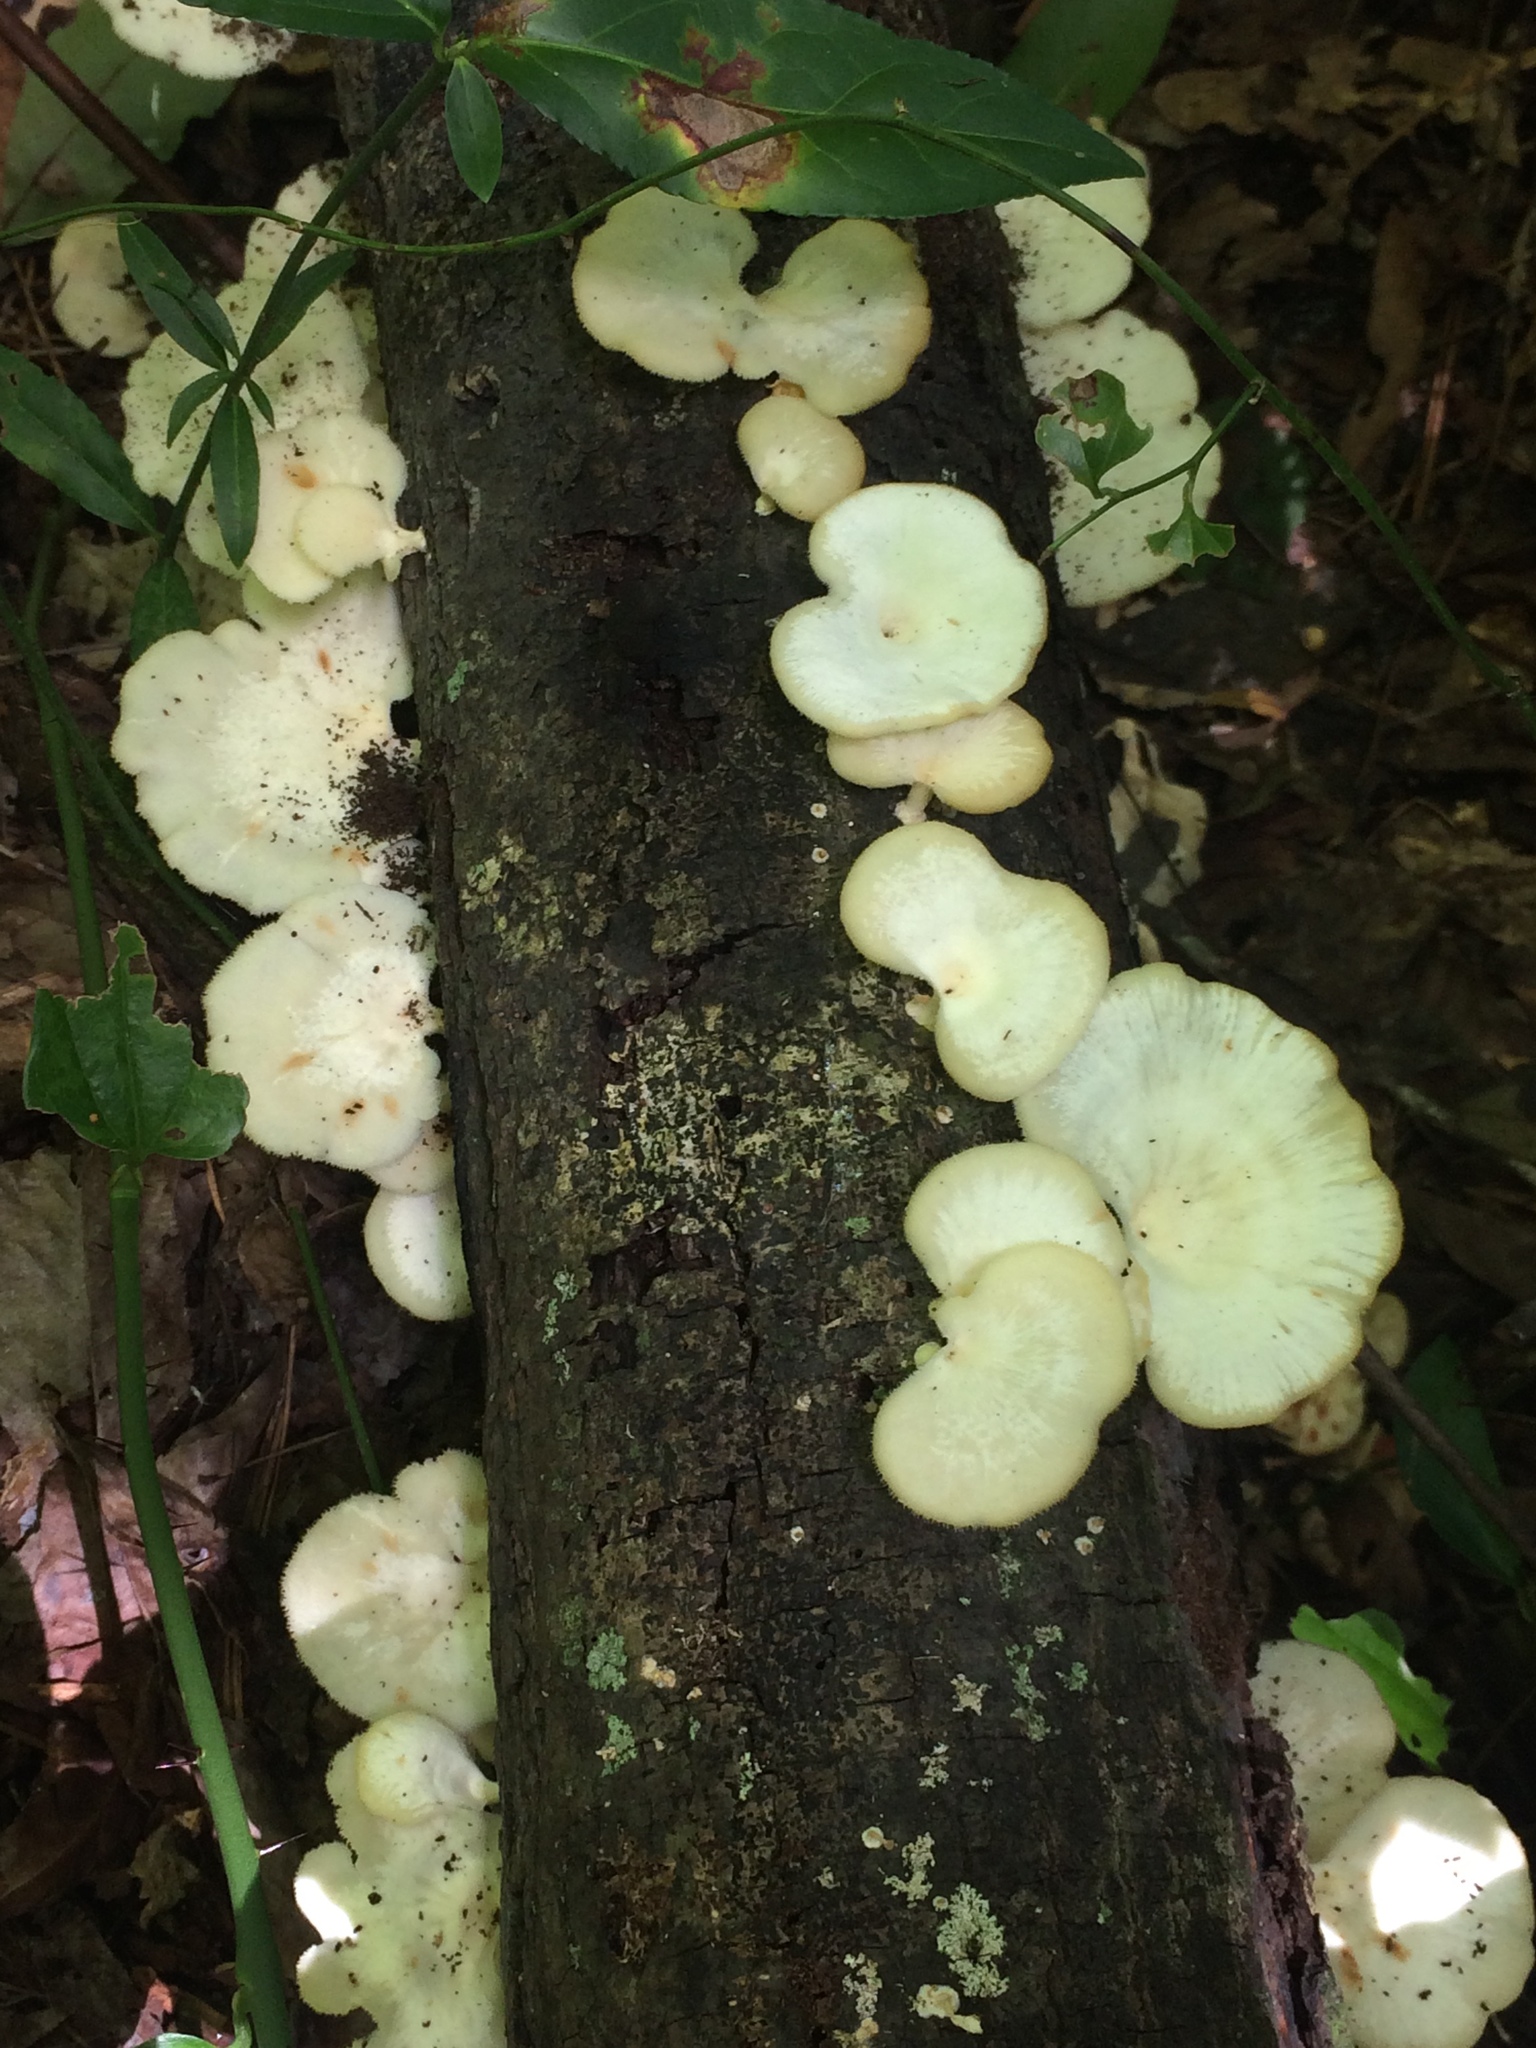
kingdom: Fungi
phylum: Basidiomycota
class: Agaricomycetes
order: Polyporales
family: Polyporaceae
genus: Favolus
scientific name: Favolus tenuiculus
